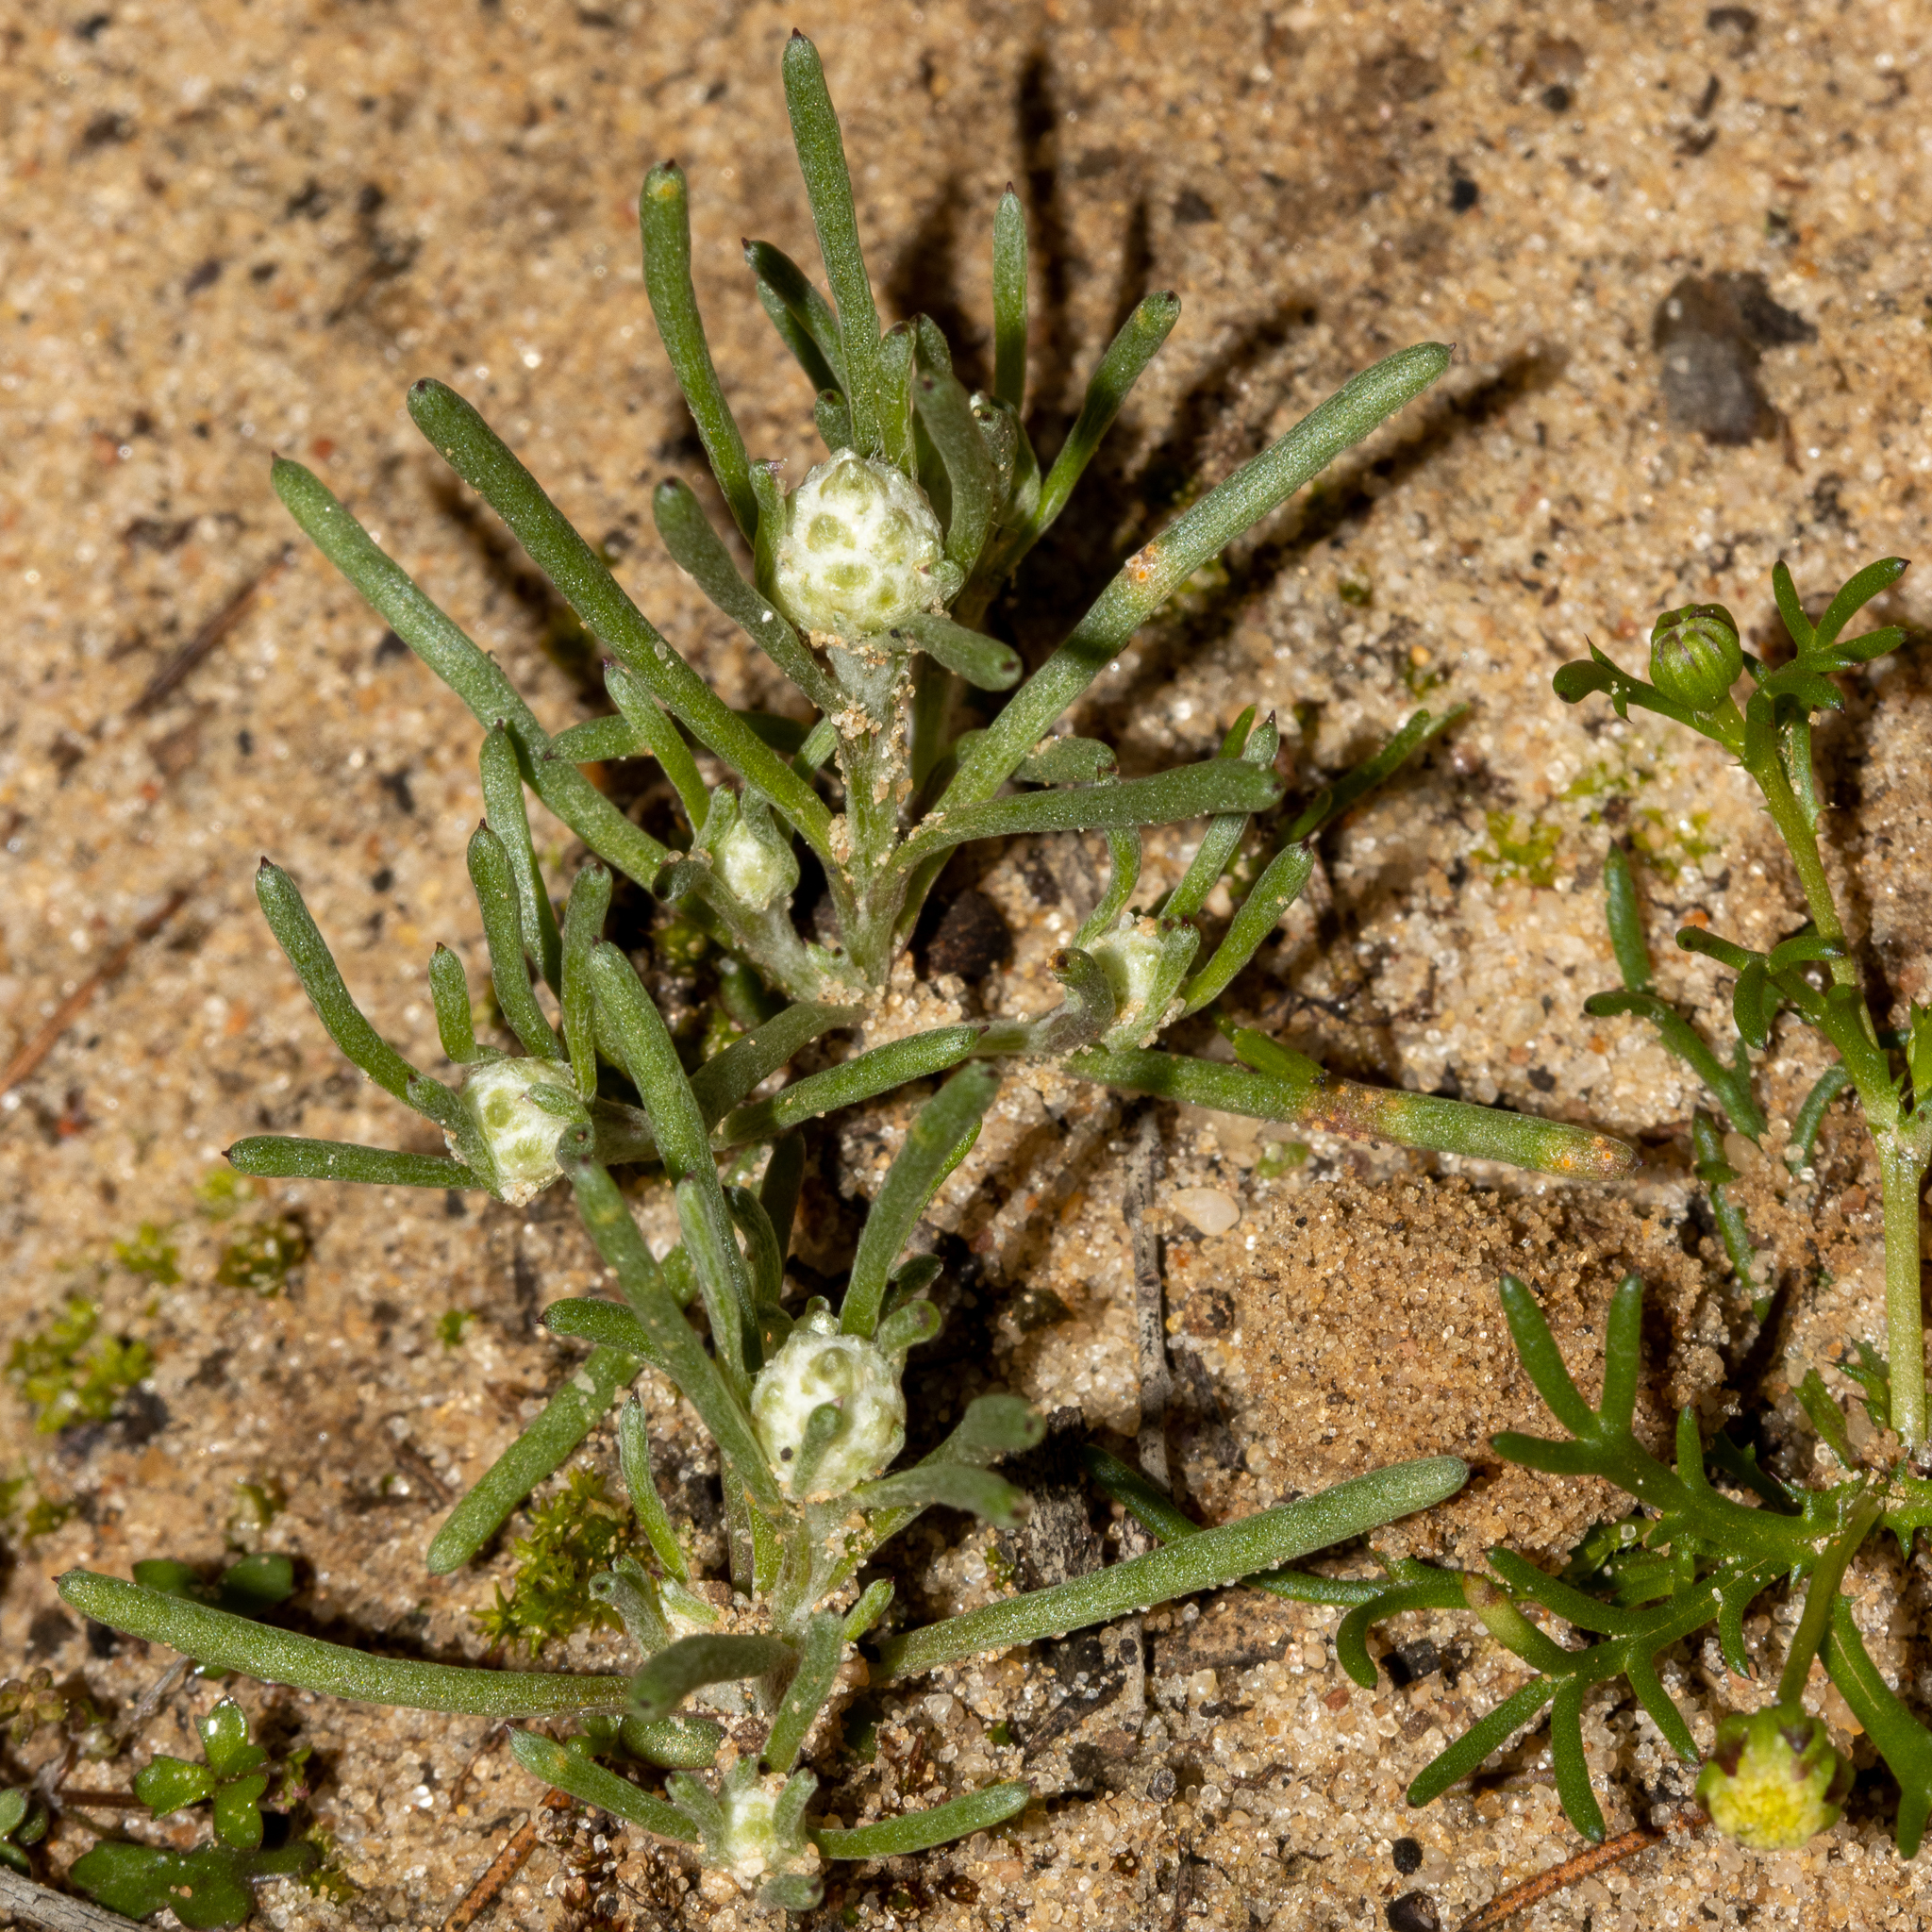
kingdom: Plantae
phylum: Tracheophyta
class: Magnoliopsida
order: Asterales
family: Asteraceae
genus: Blennospora
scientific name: Blennospora drummondii
